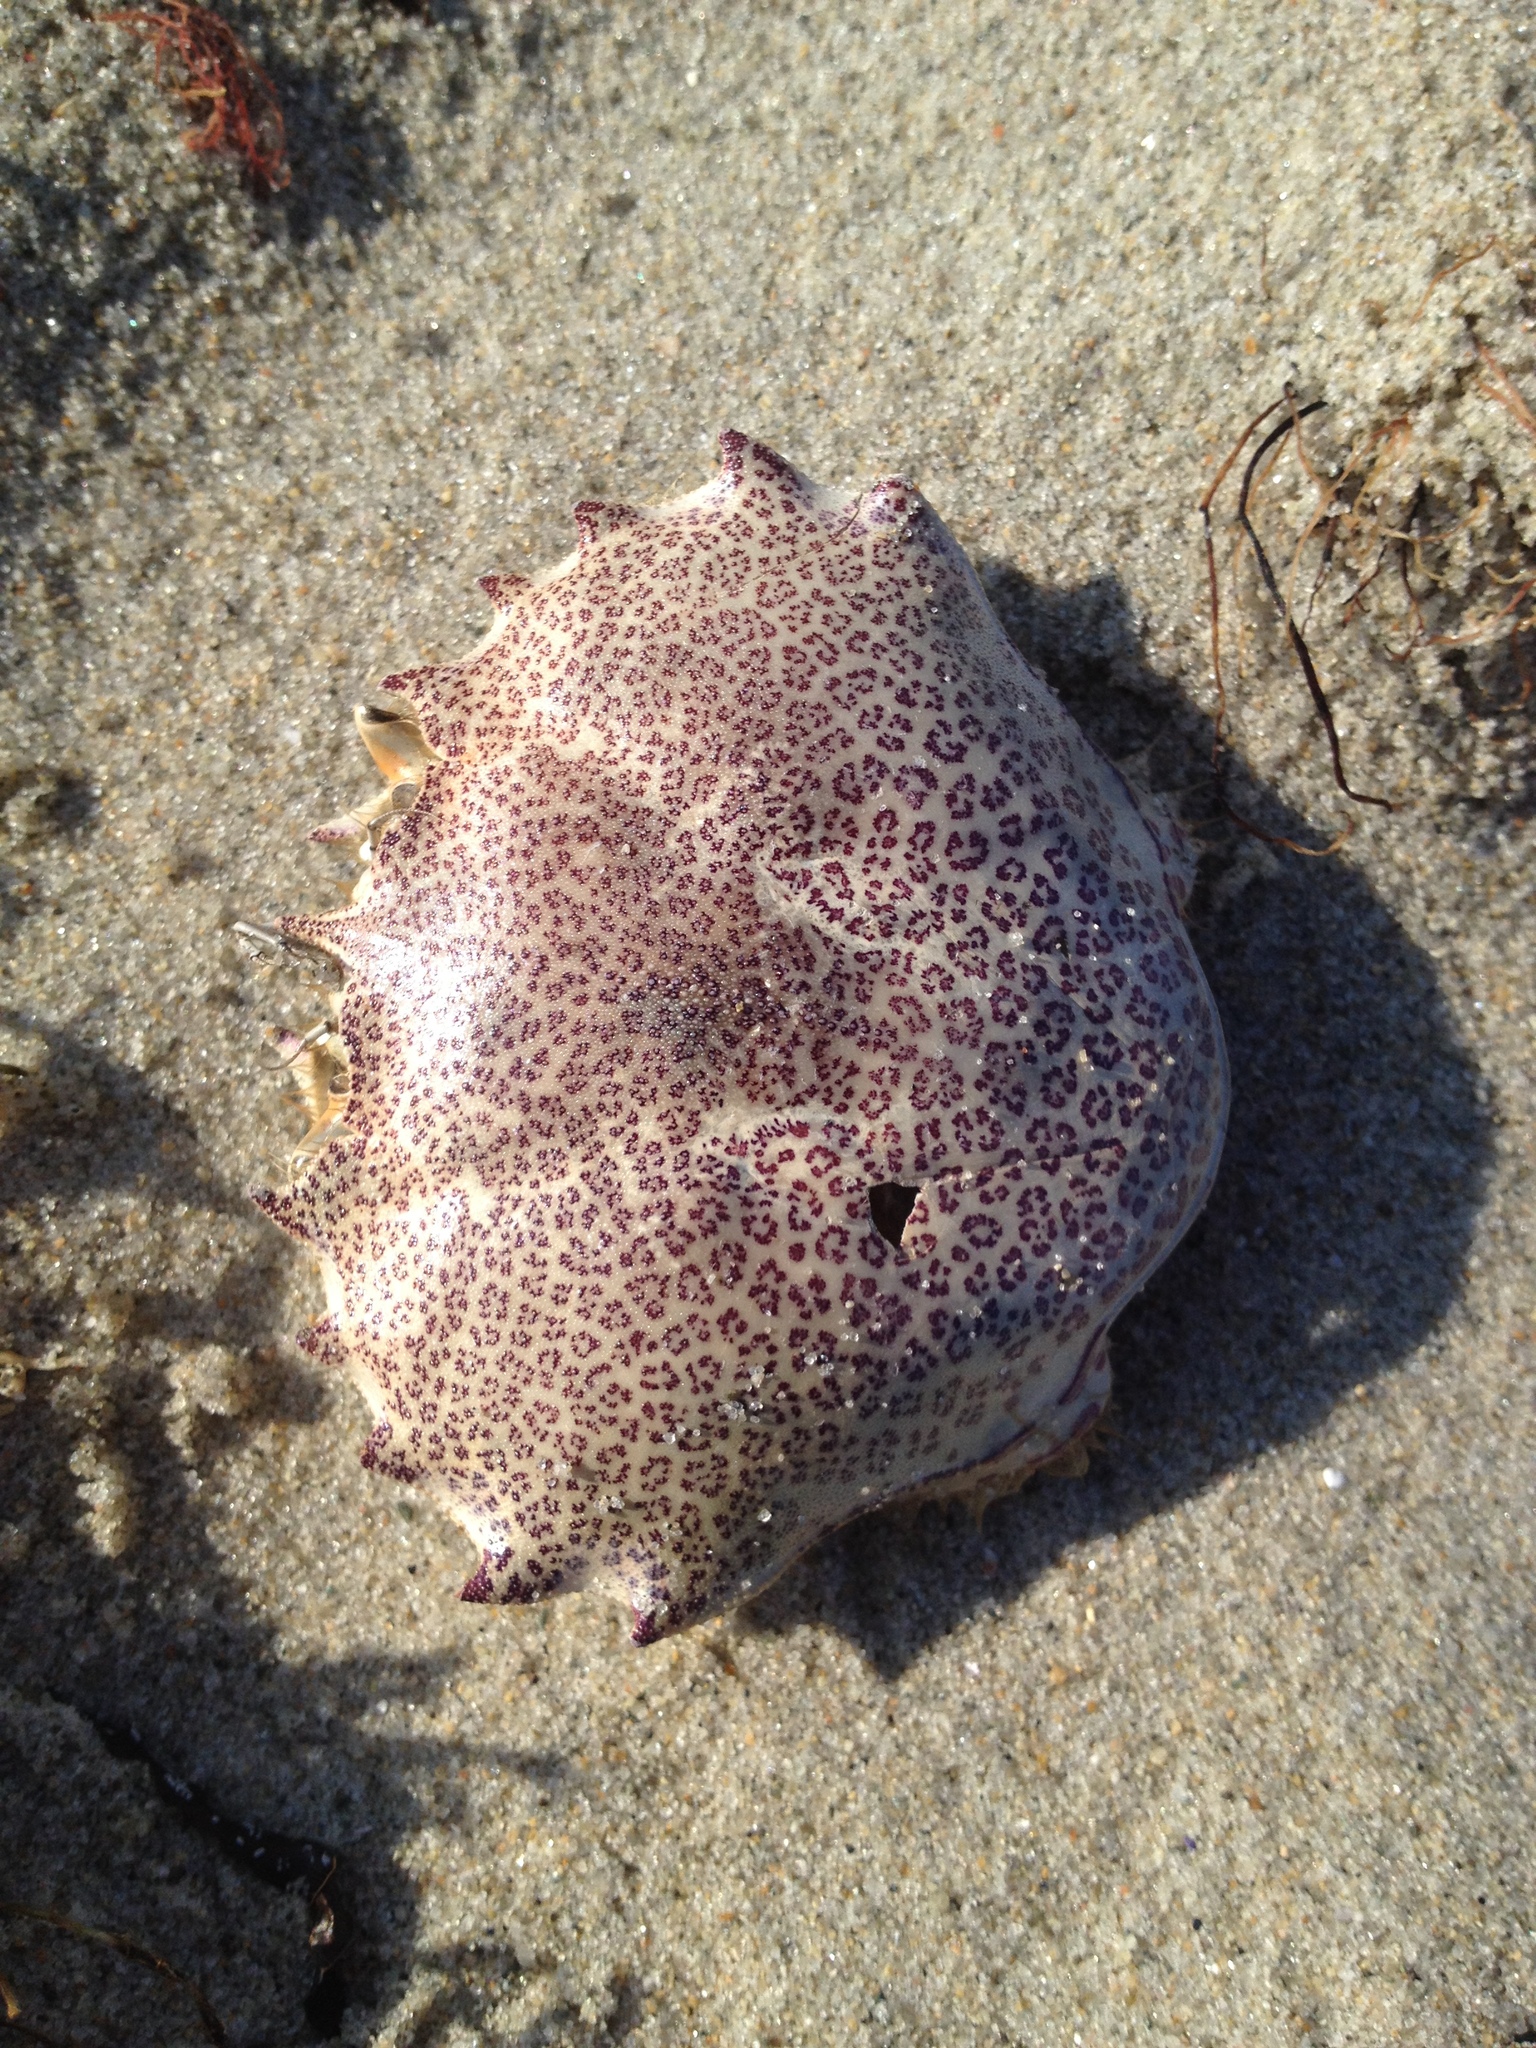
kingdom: Animalia
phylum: Arthropoda
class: Malacostraca
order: Decapoda
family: Ovalipidae
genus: Ovalipes
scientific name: Ovalipes ocellatus
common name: Lady crab
